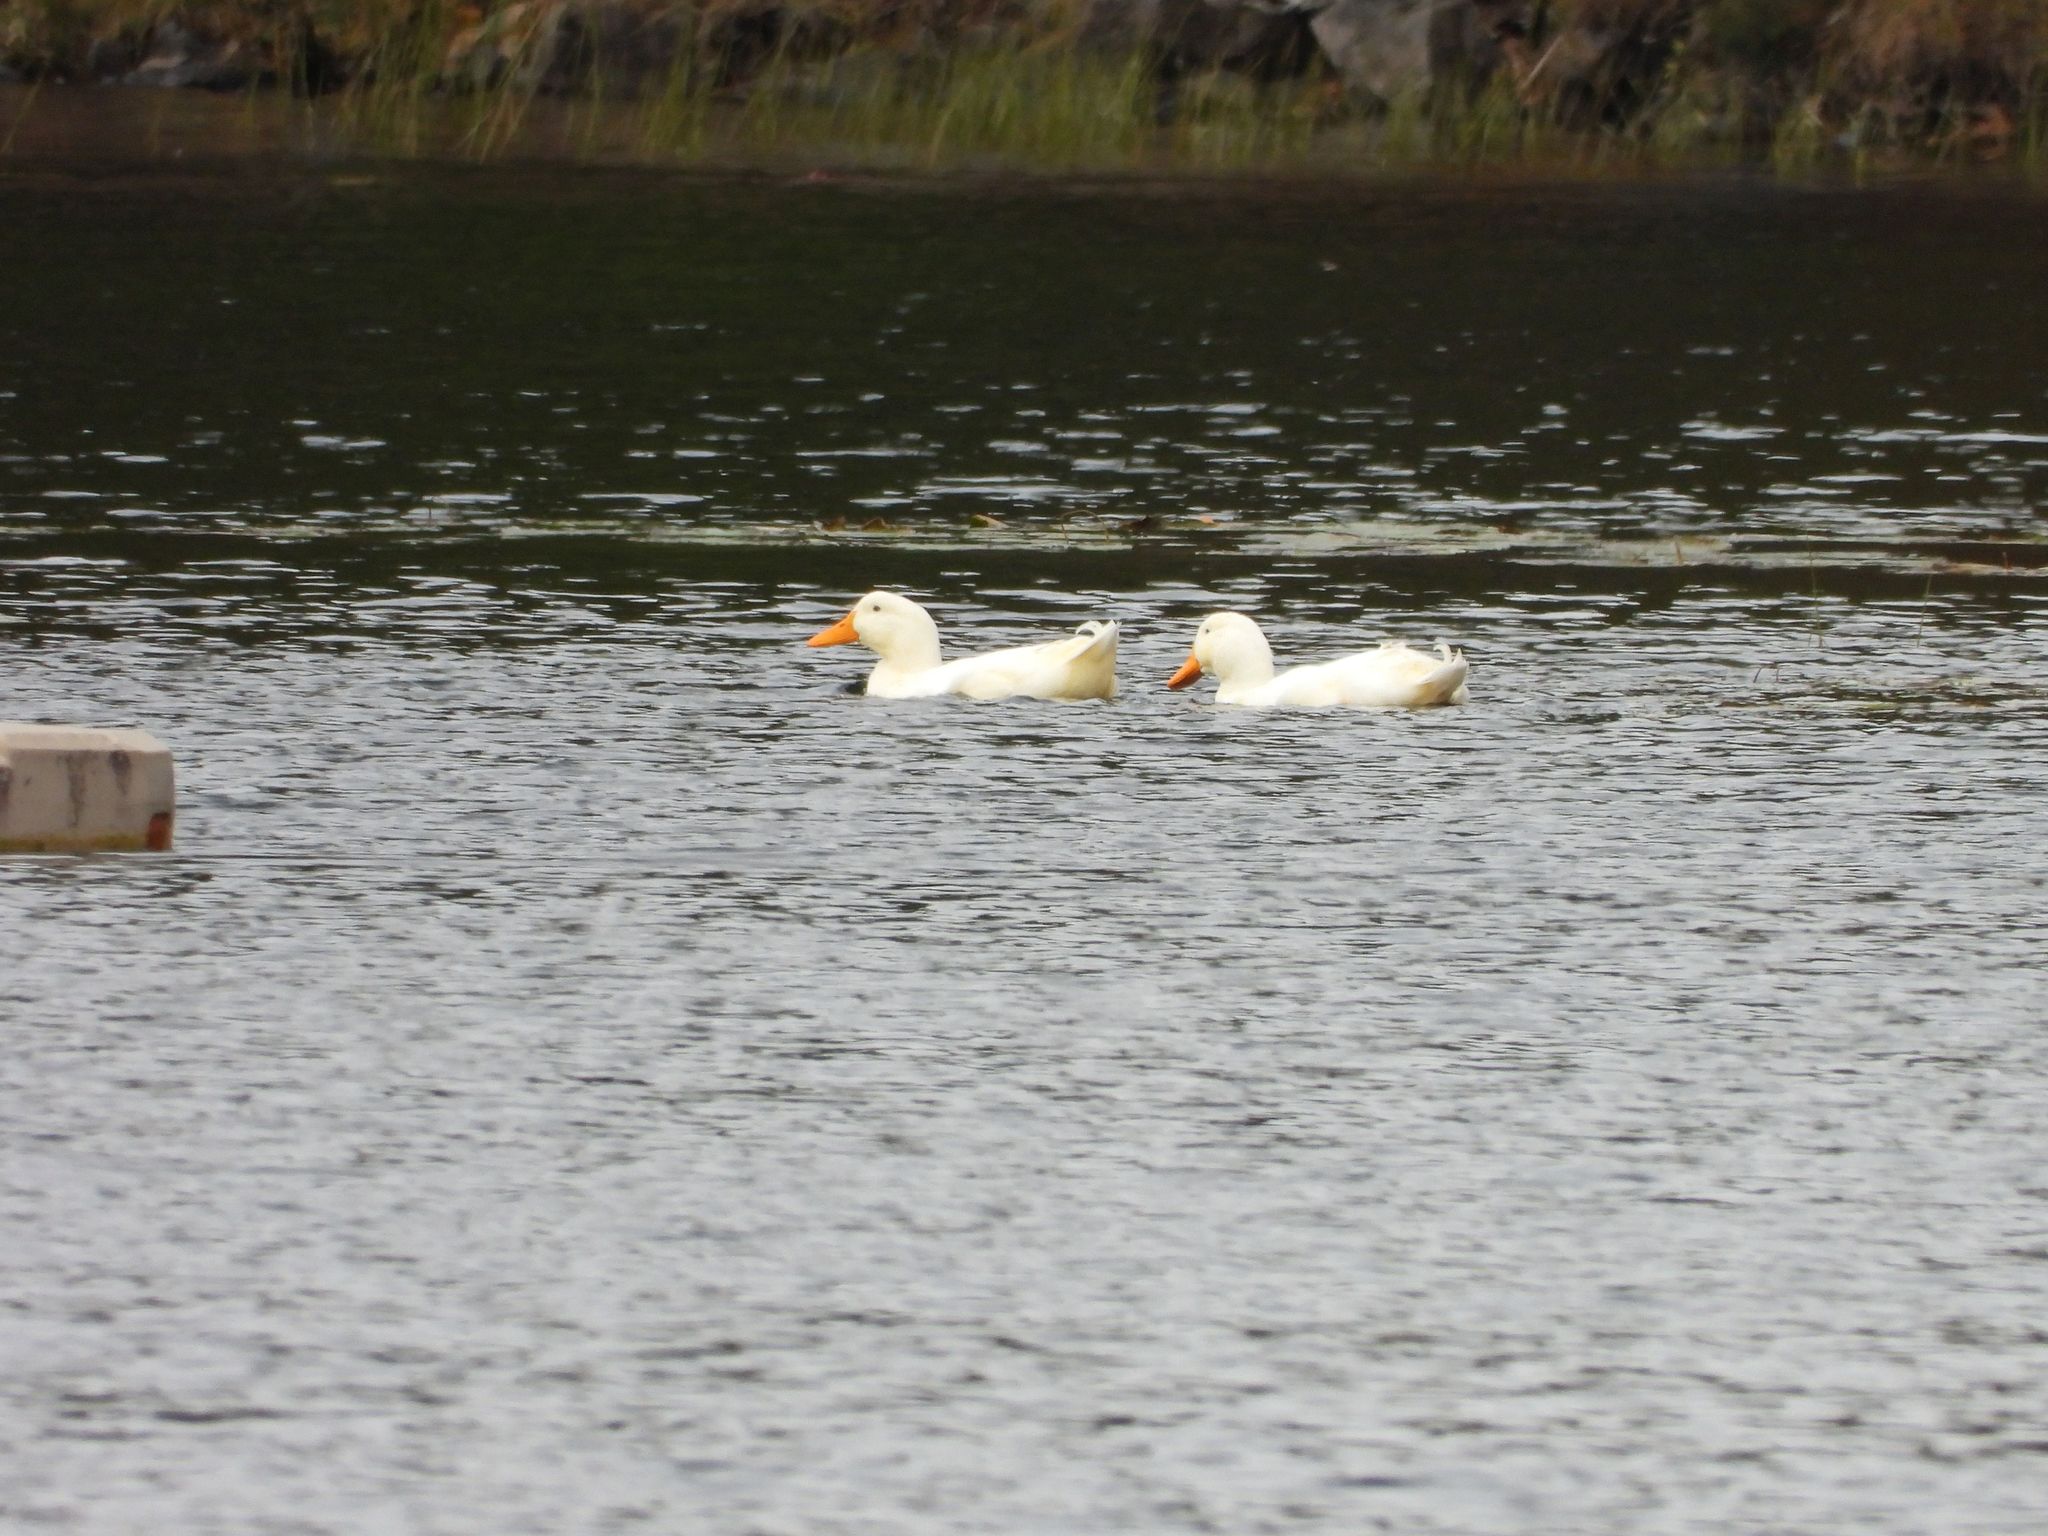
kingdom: Animalia
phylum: Chordata
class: Aves
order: Anseriformes
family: Anatidae
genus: Anas
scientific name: Anas platyrhynchos
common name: Mallard
